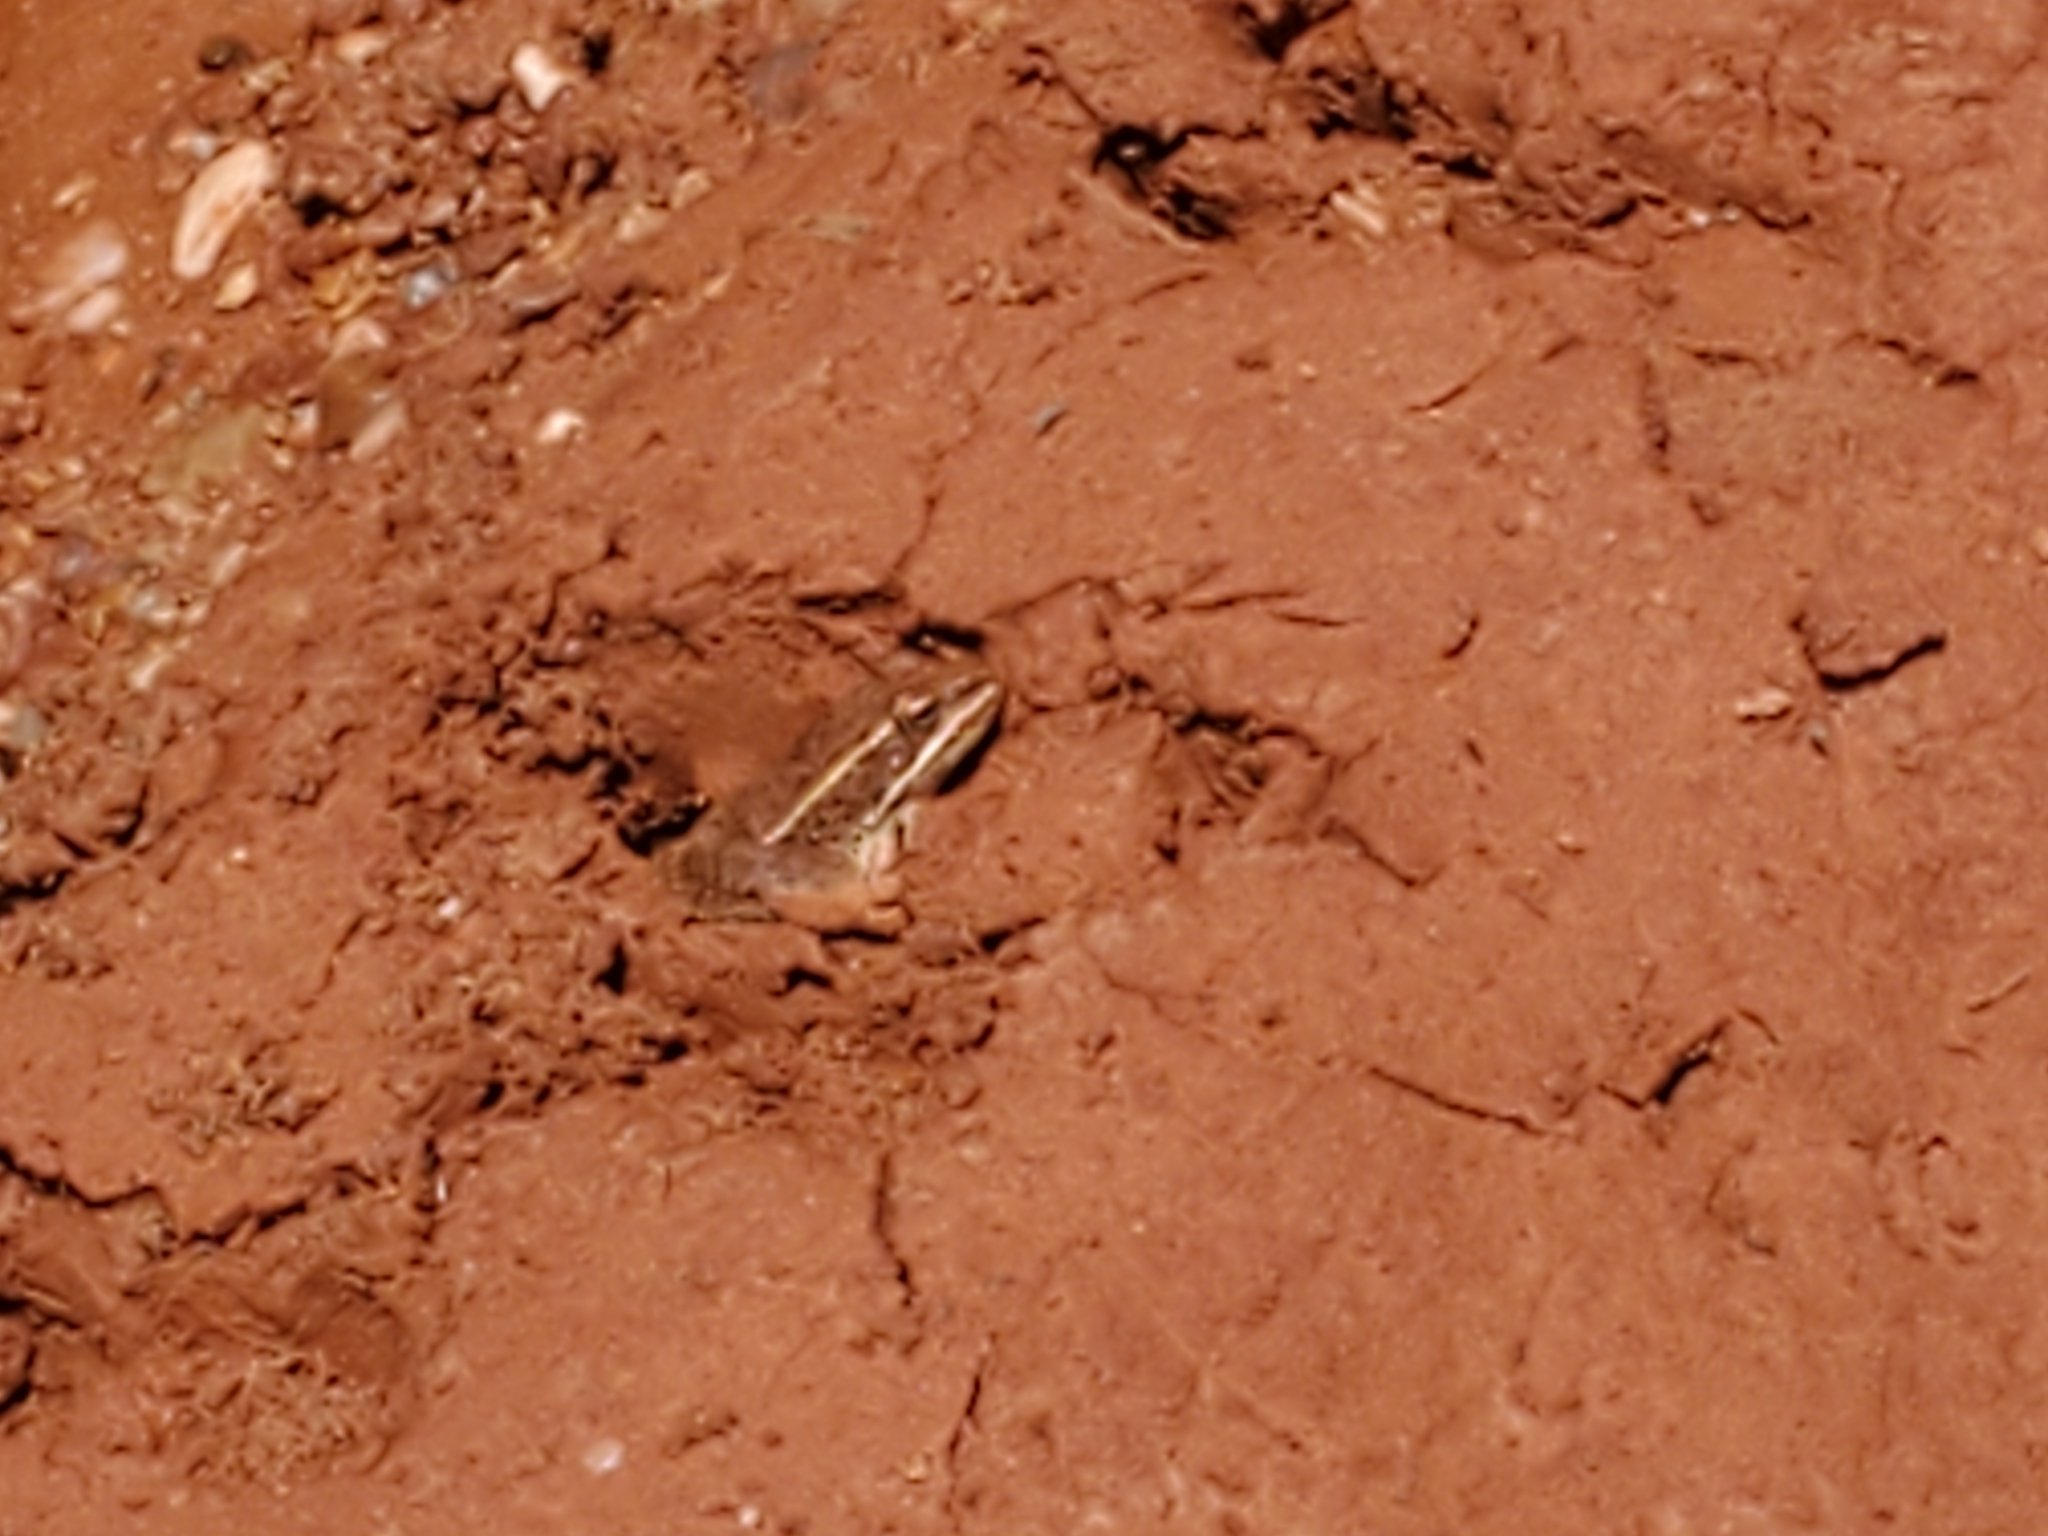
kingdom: Animalia
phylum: Chordata
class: Amphibia
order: Anura
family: Ranidae
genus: Lithobates
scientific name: Lithobates blairi
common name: Plains leopard frog
